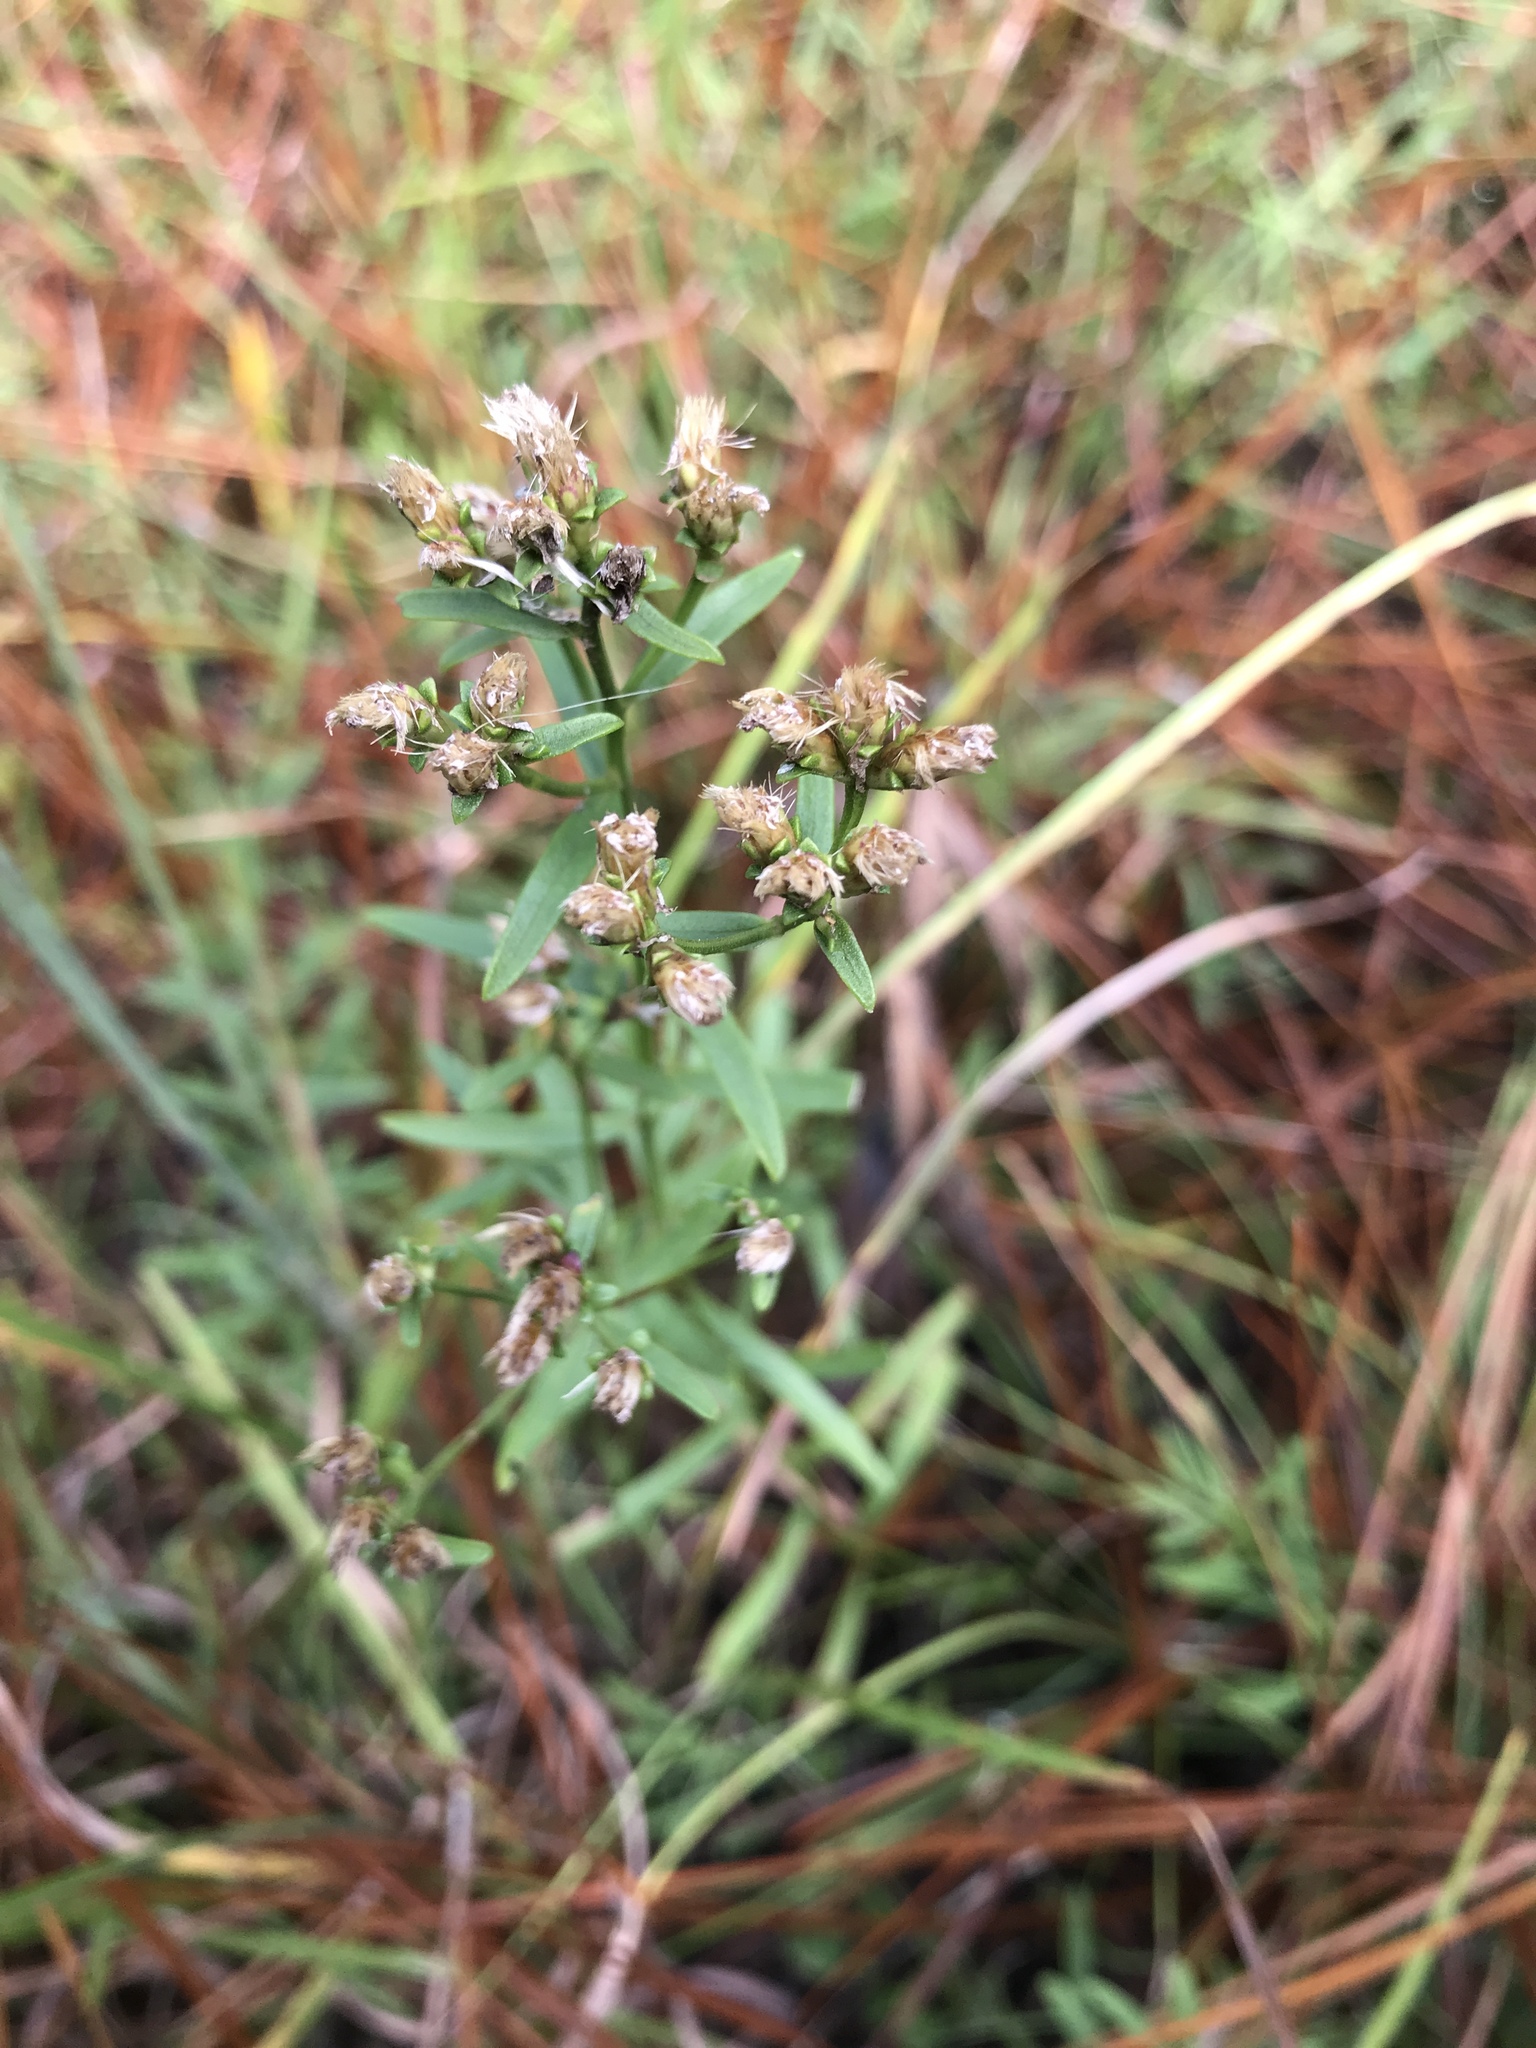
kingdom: Plantae
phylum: Tracheophyta
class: Magnoliopsida
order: Asterales
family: Asteraceae
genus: Sericocarpus
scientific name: Sericocarpus linifolius
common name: Narrow-leaf aster
